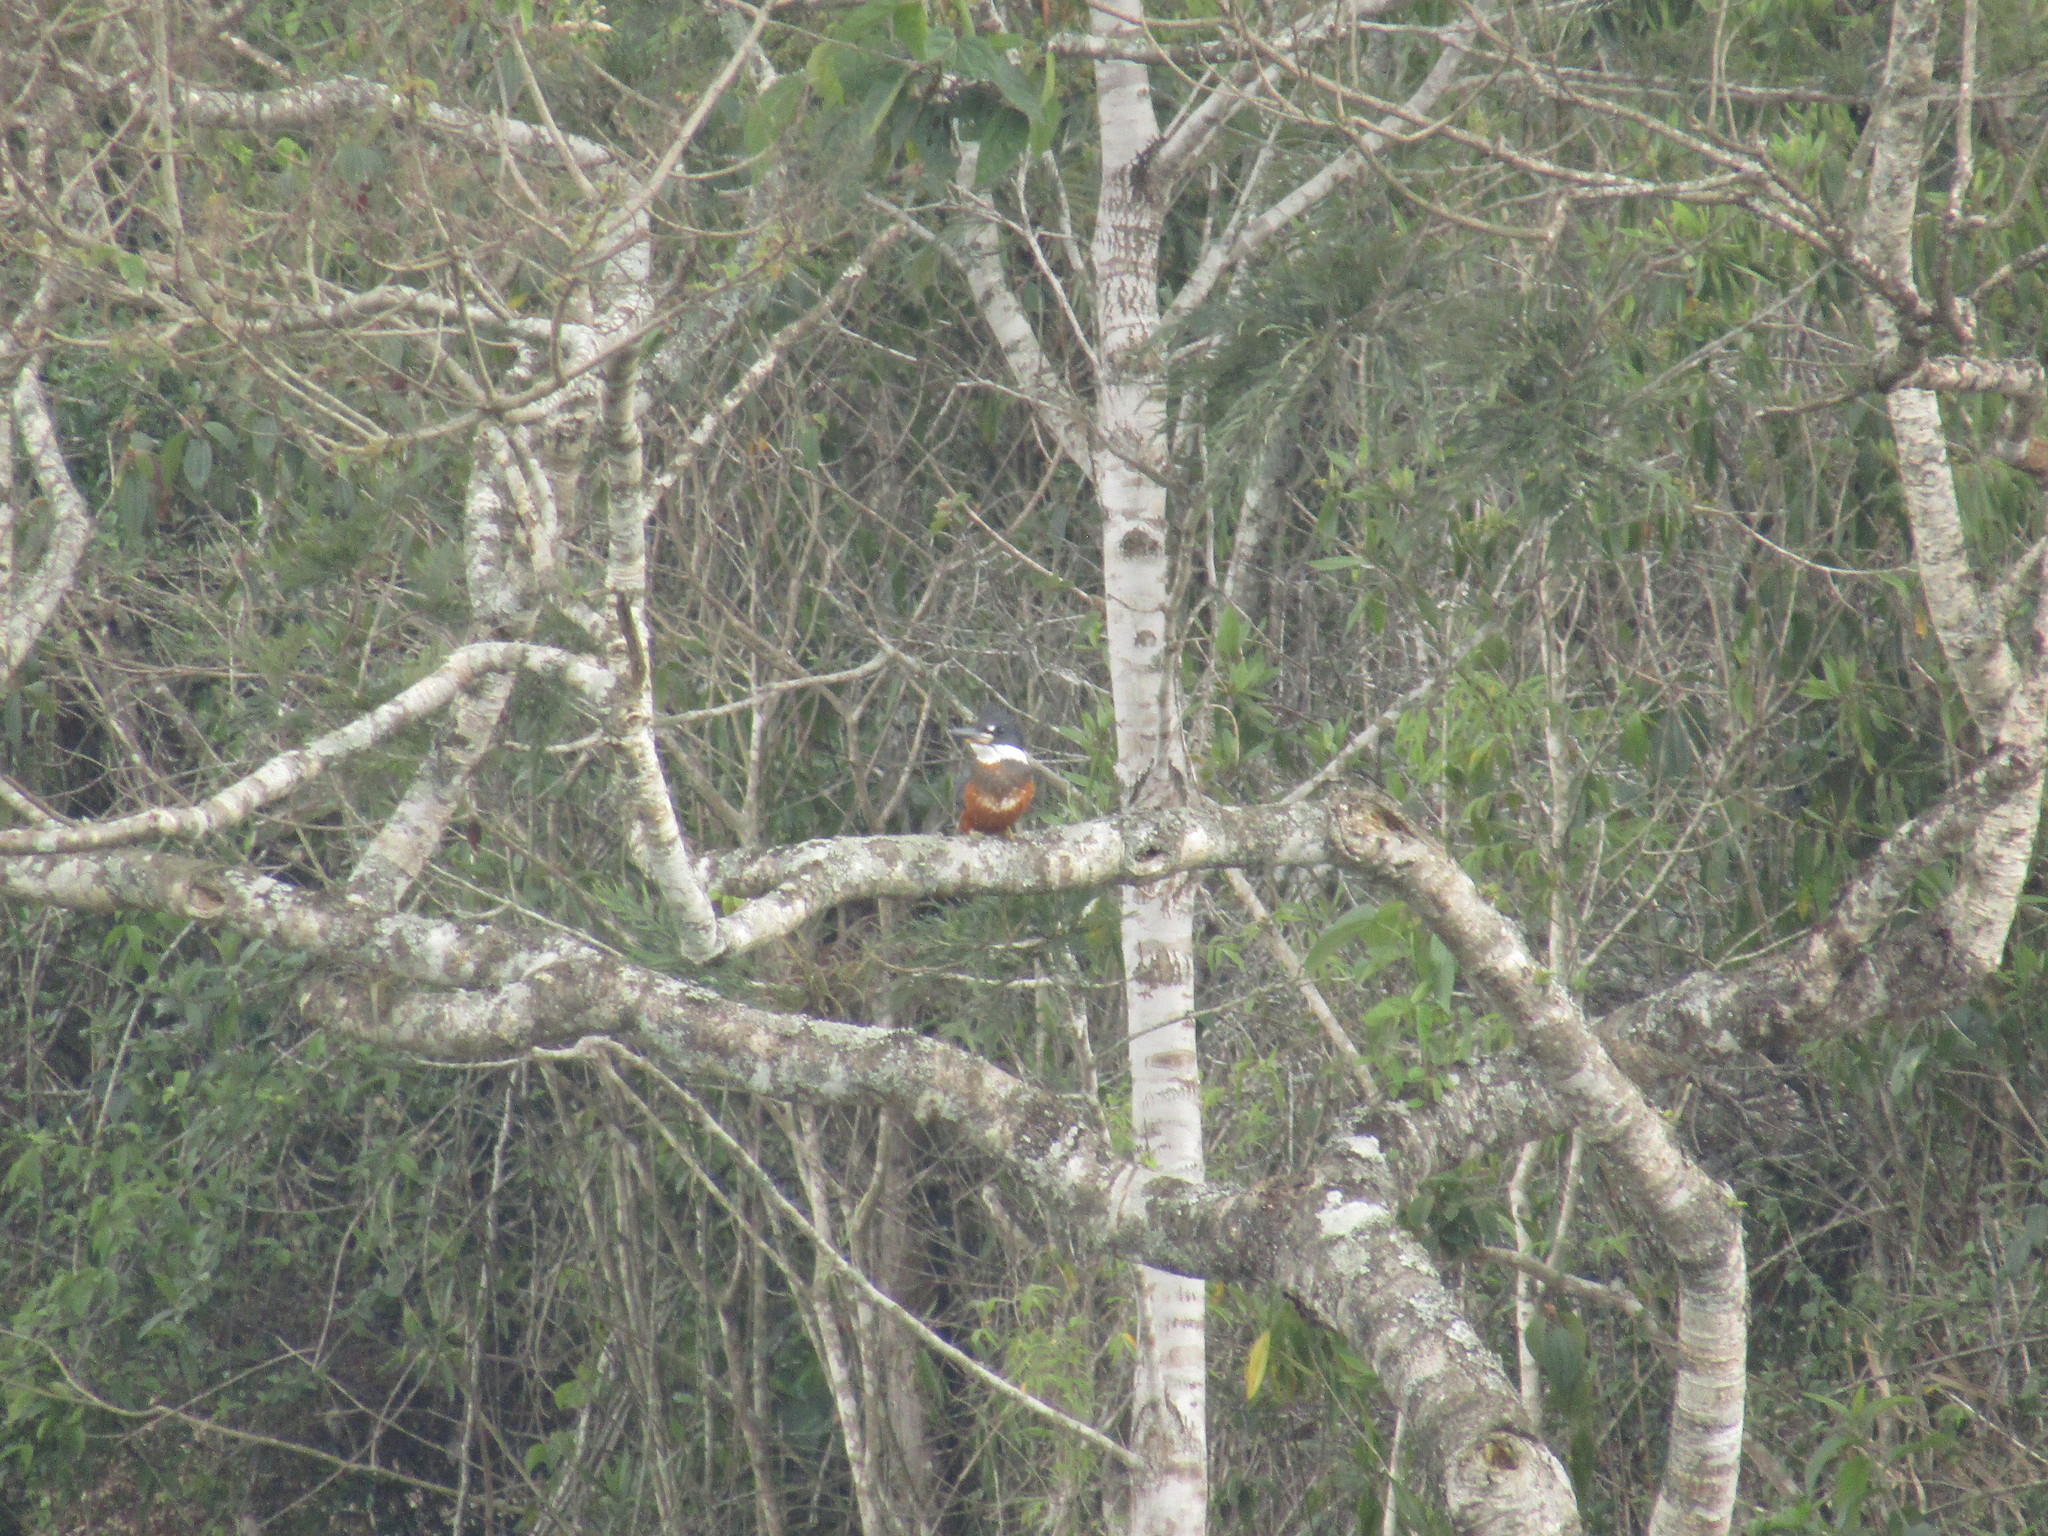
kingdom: Animalia
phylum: Chordata
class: Aves
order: Coraciiformes
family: Alcedinidae
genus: Megaceryle
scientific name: Megaceryle torquata
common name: Ringed kingfisher
